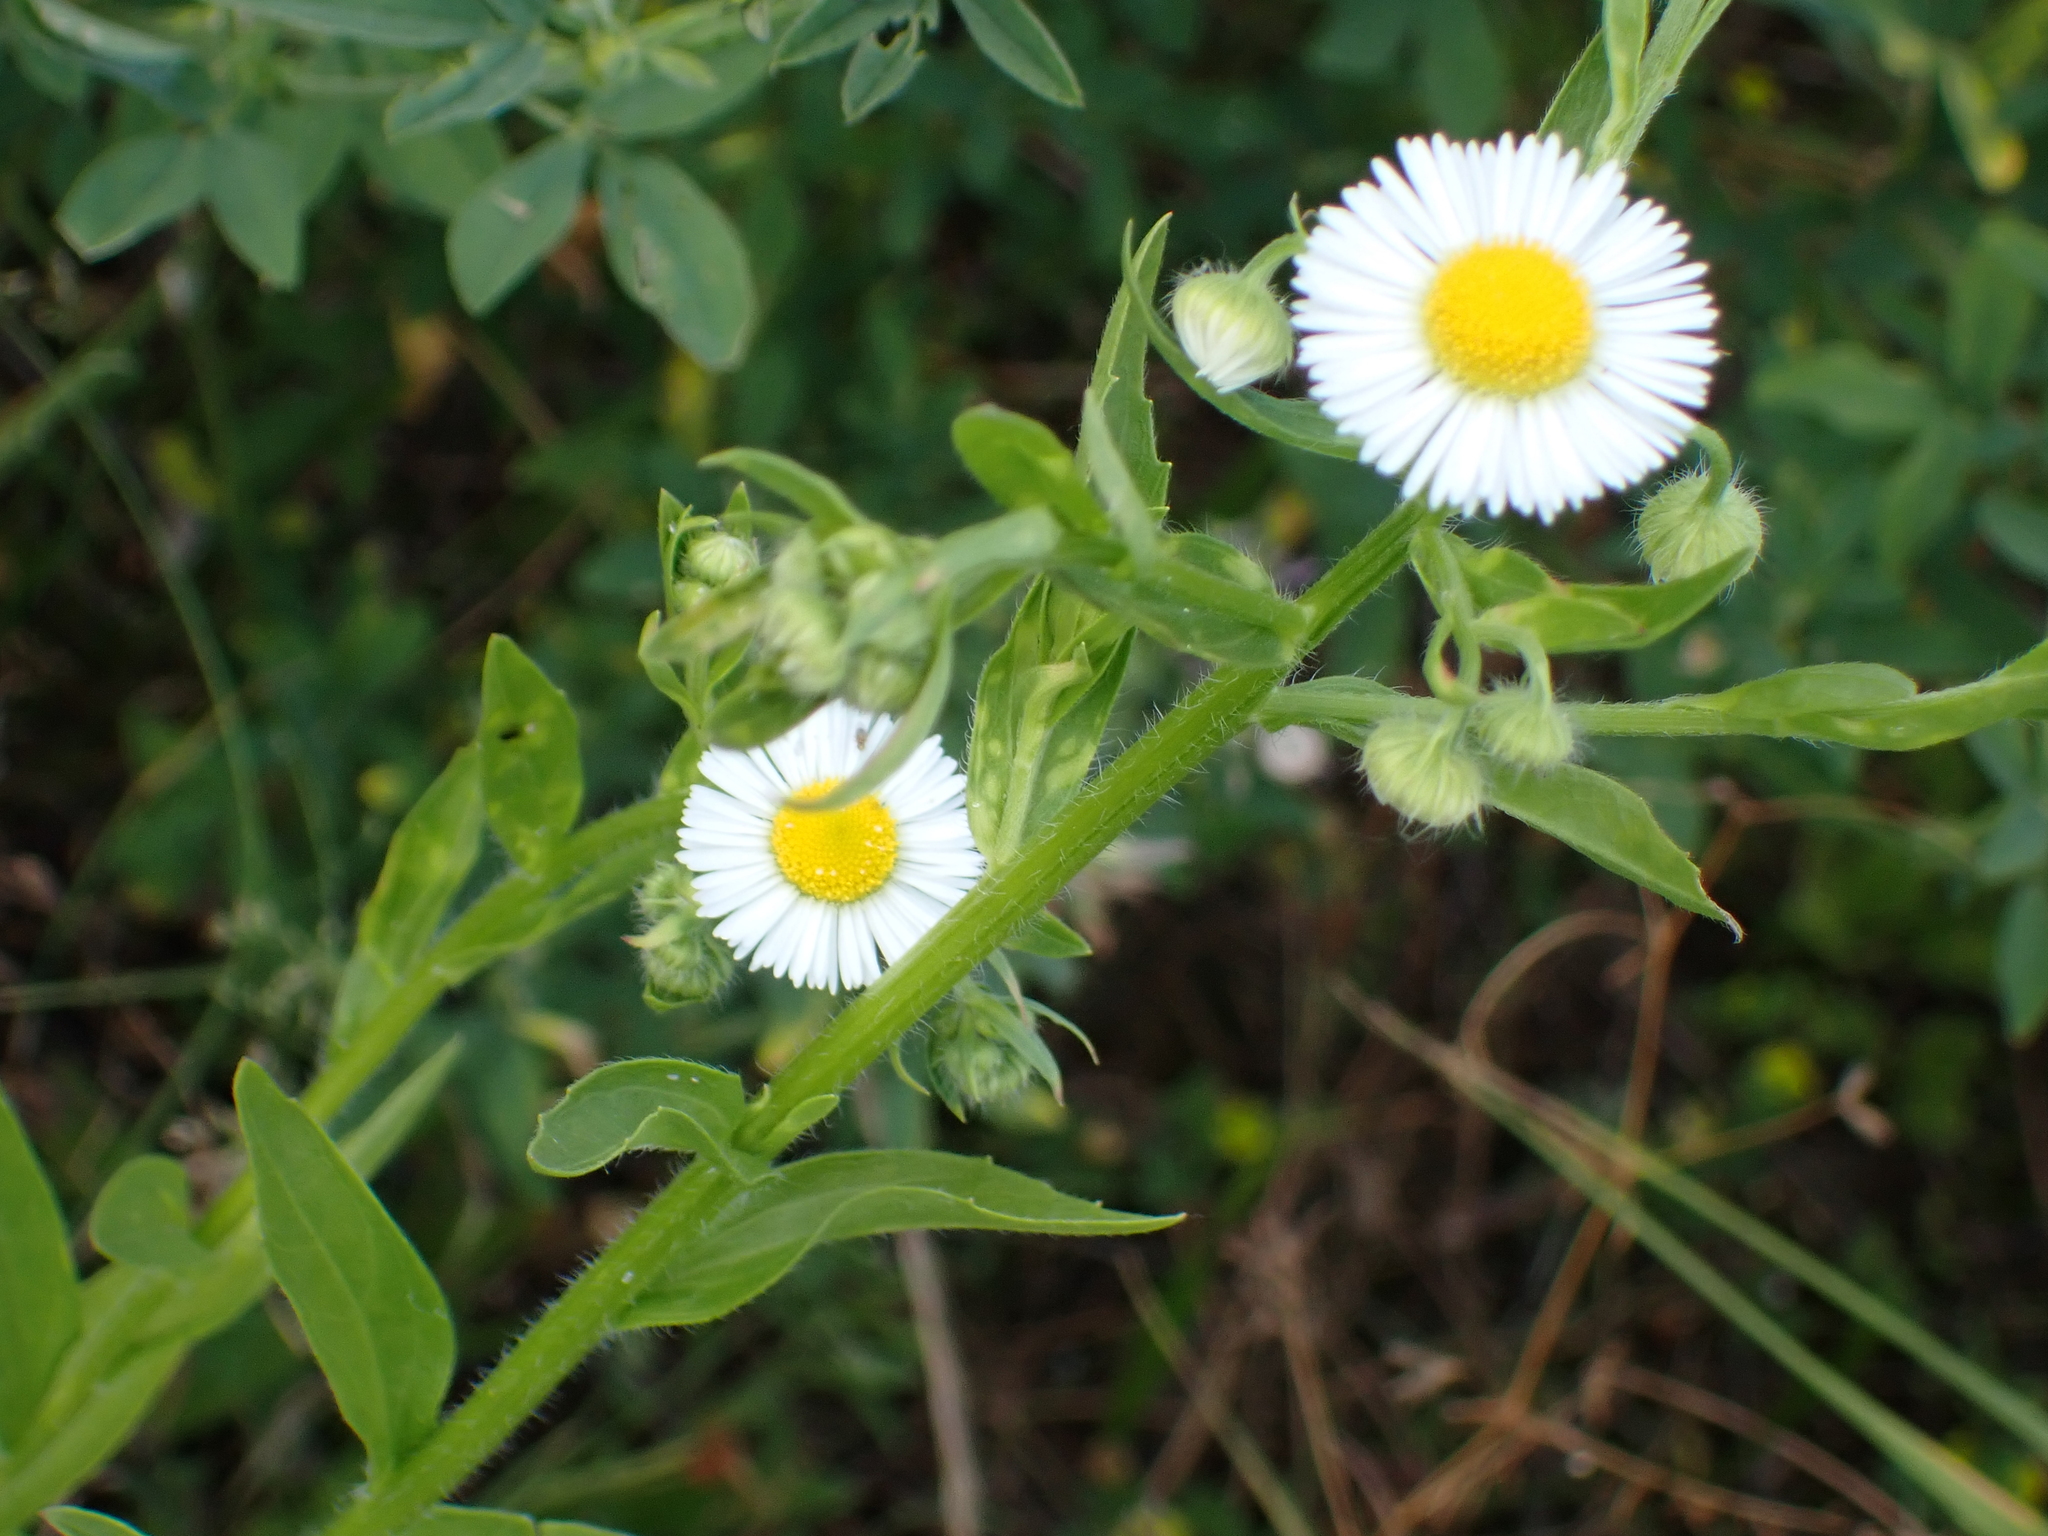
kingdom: Plantae
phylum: Tracheophyta
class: Magnoliopsida
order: Asterales
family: Asteraceae
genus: Erigeron
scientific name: Erigeron annuus
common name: Tall fleabane
